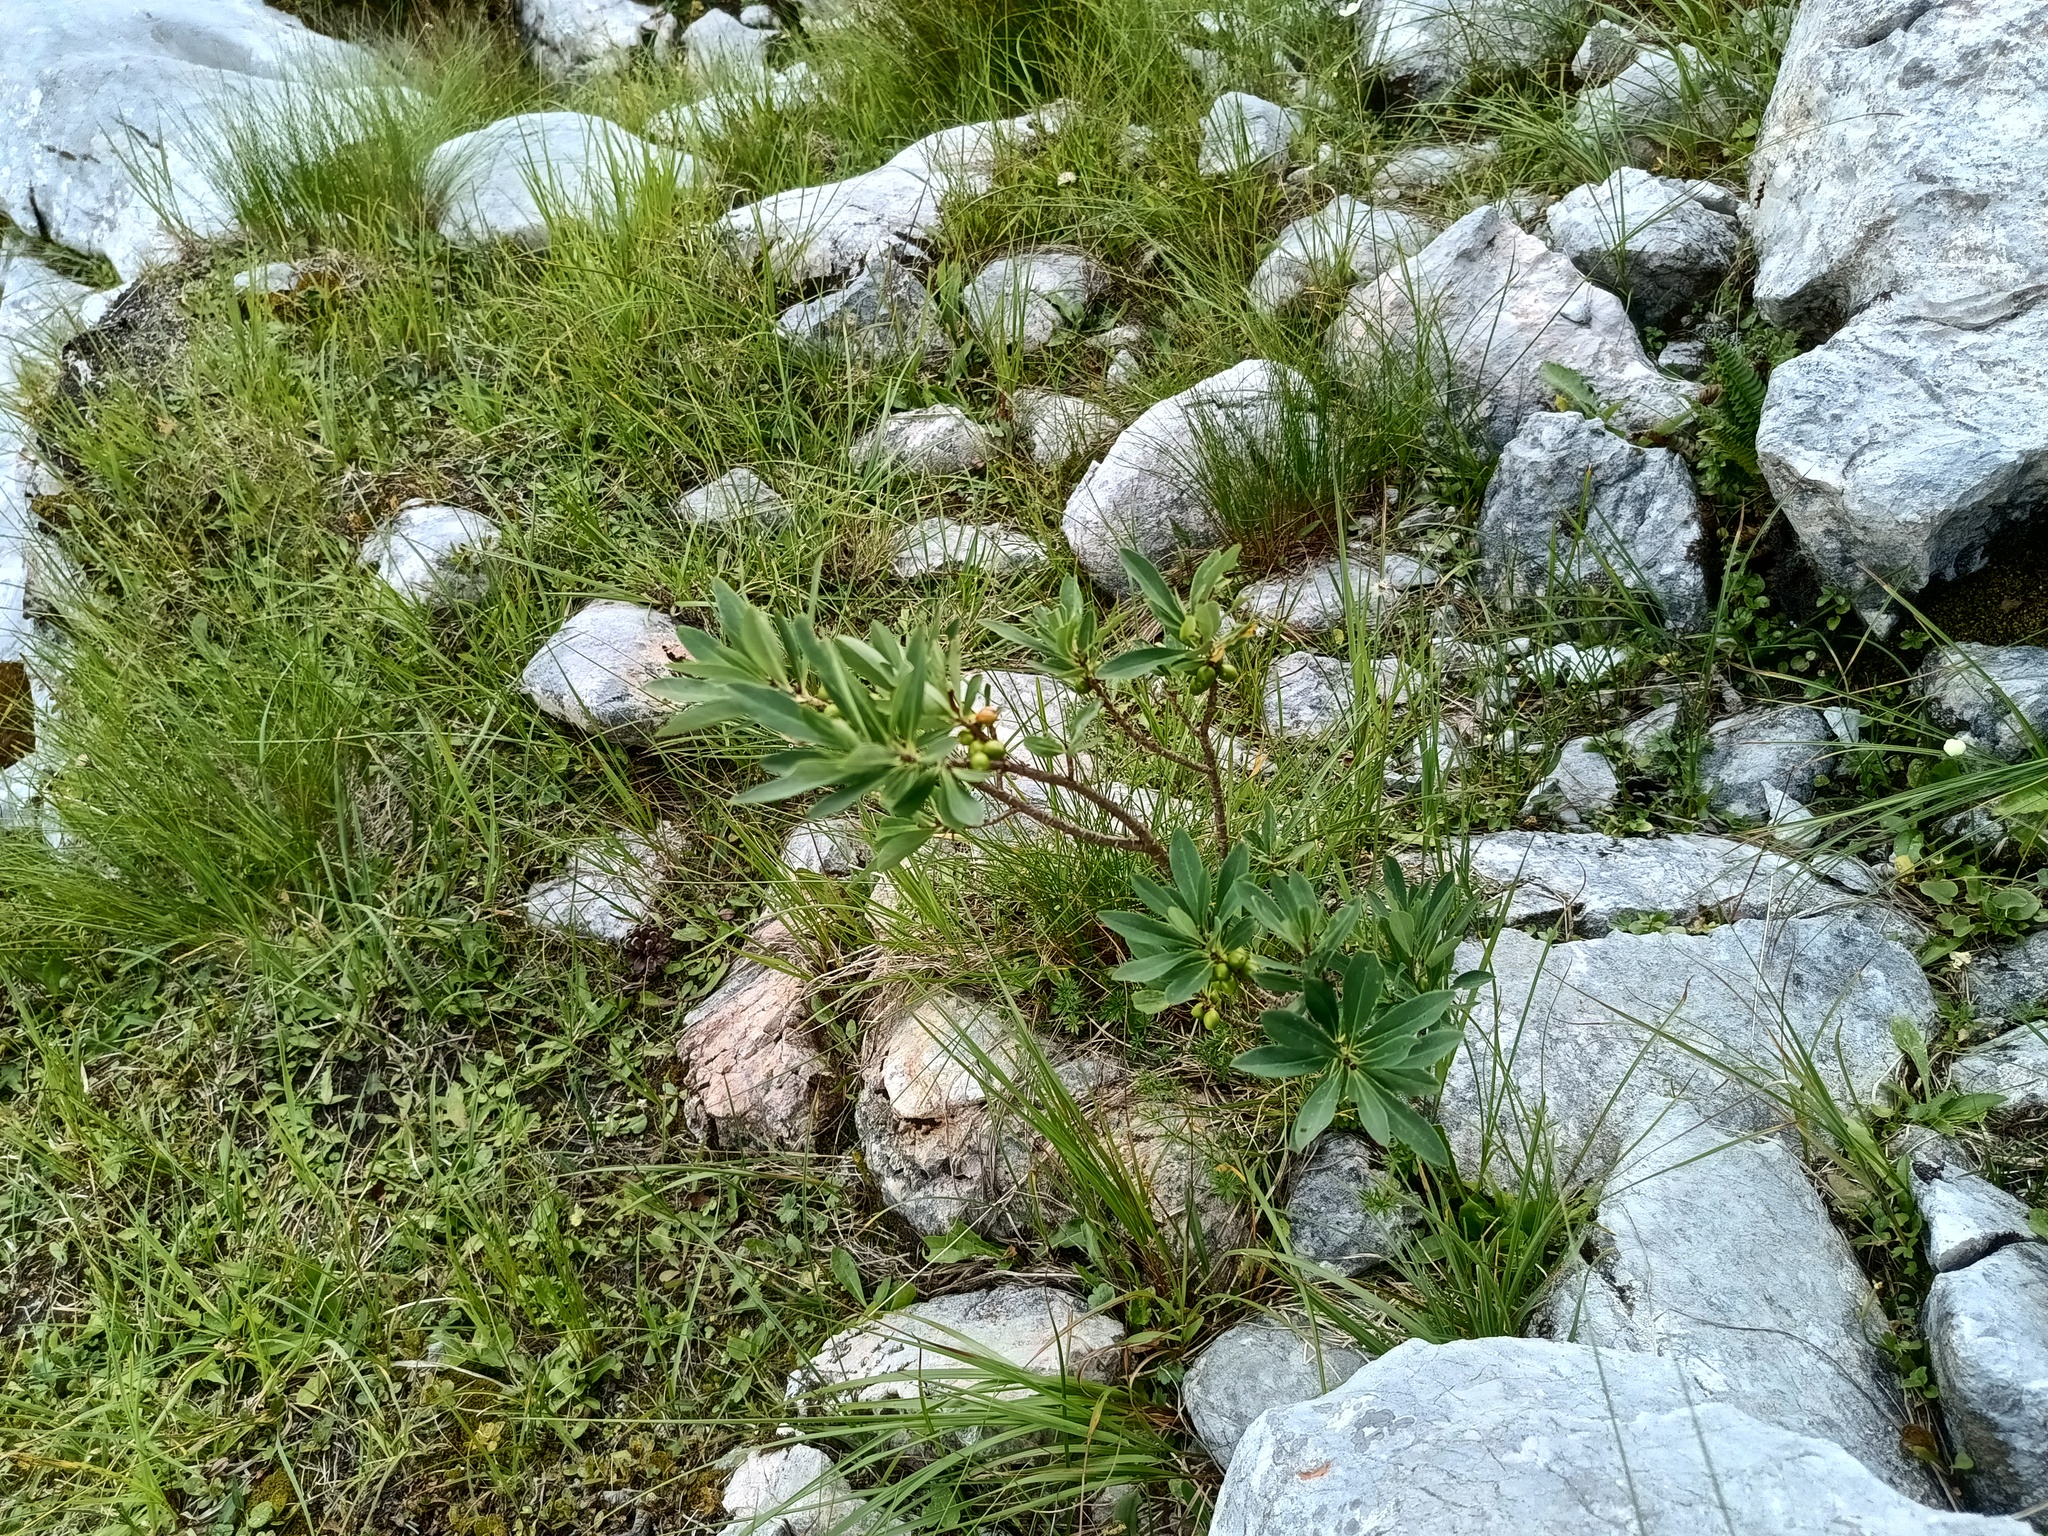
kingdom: Plantae
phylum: Tracheophyta
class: Magnoliopsida
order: Malvales
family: Thymelaeaceae
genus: Daphne
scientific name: Daphne mezereum
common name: Mezereon
